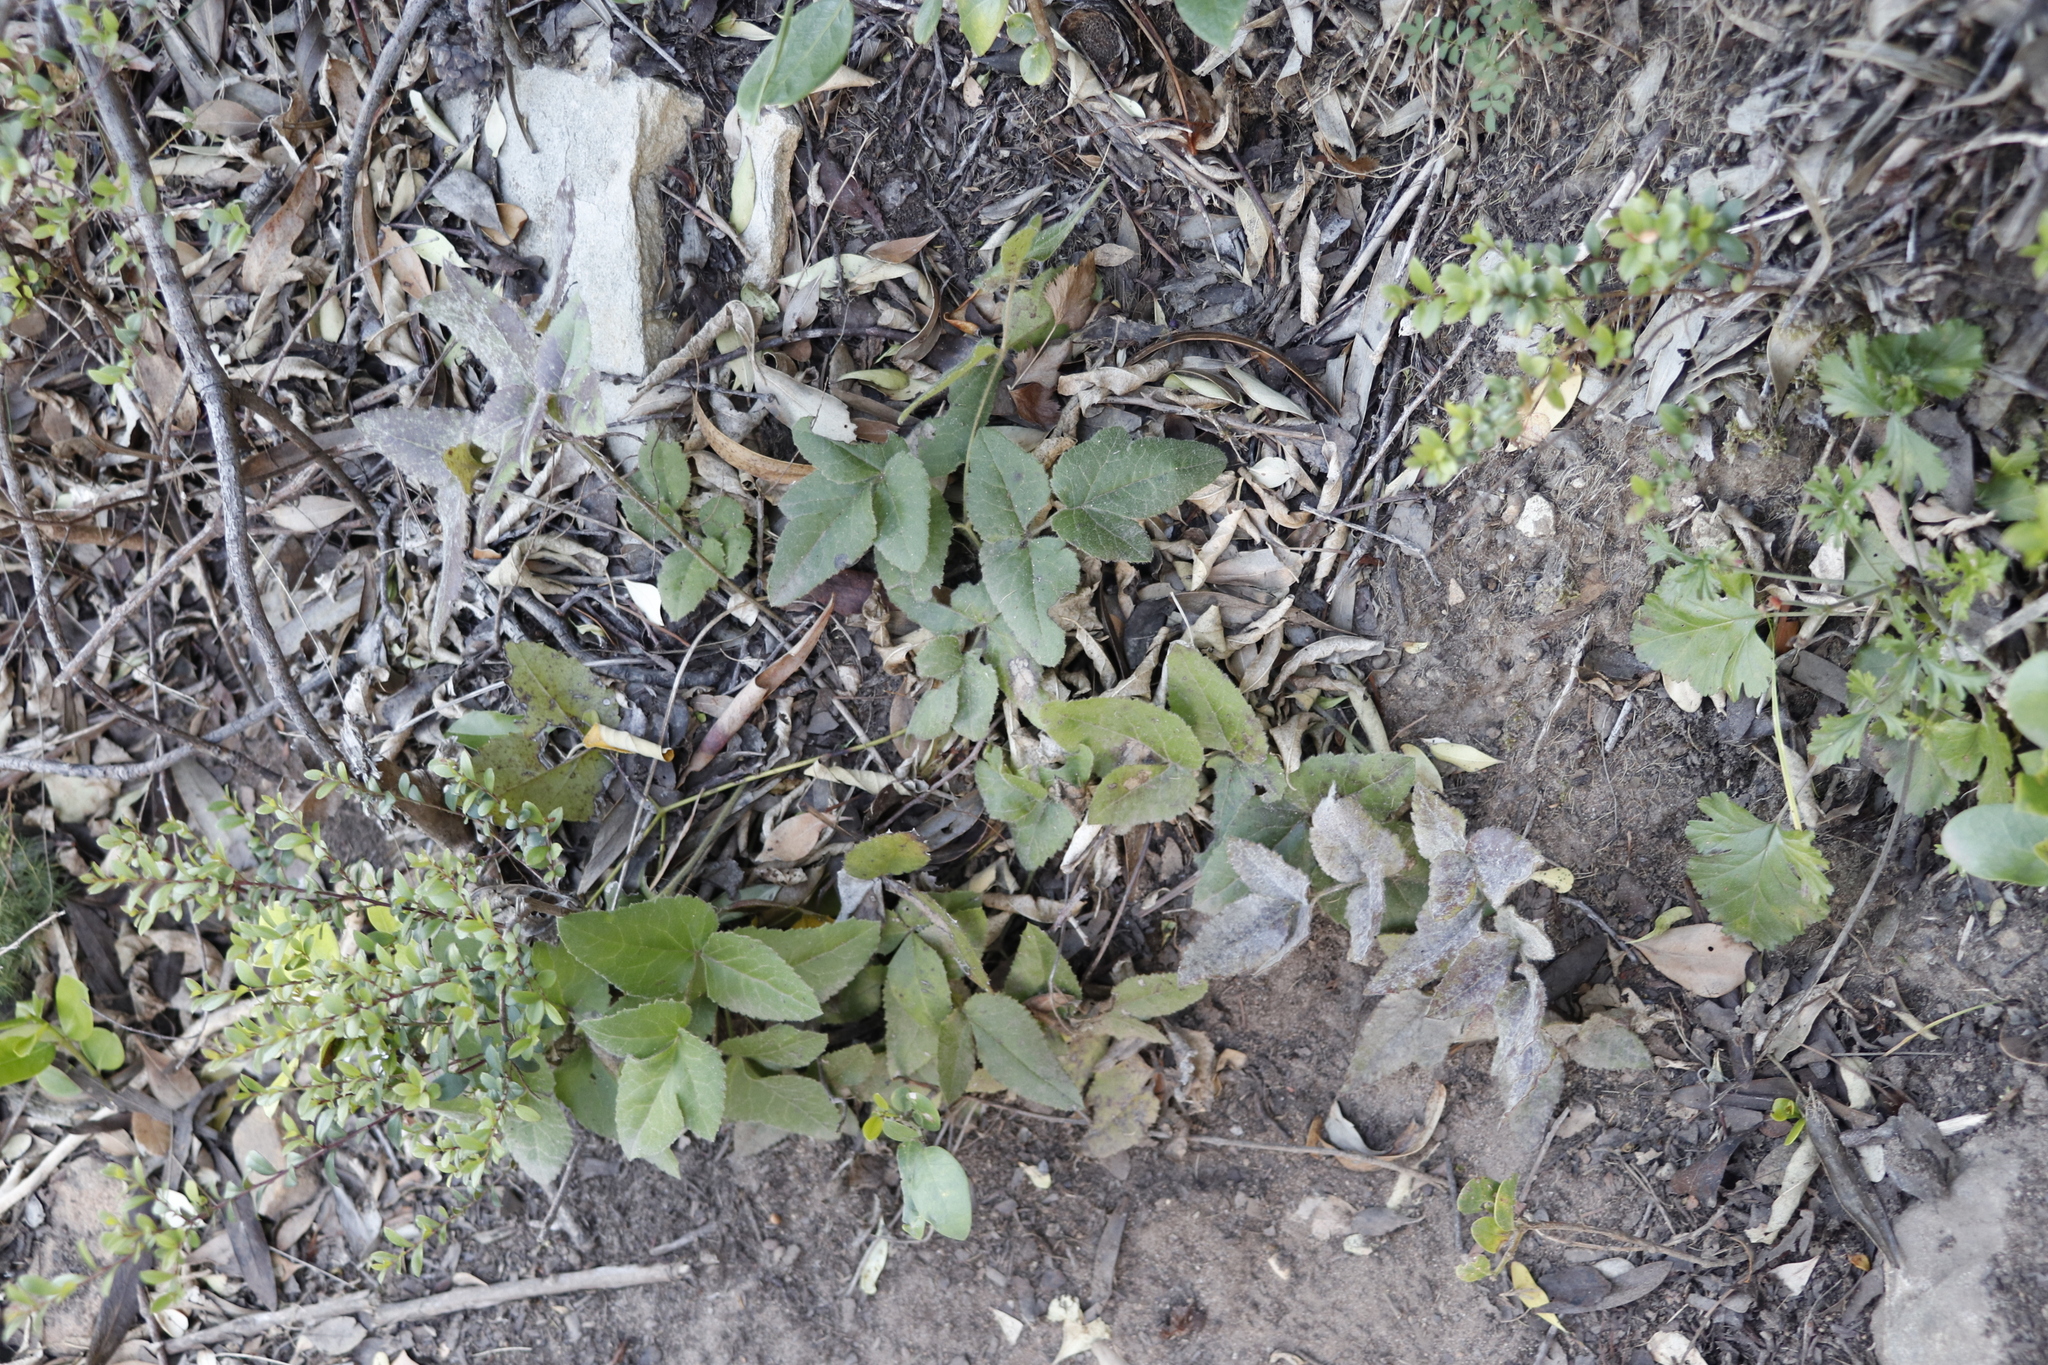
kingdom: Plantae
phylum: Tracheophyta
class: Magnoliopsida
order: Ranunculales
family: Ranunculaceae
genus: Knowltonia
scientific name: Knowltonia capensis
